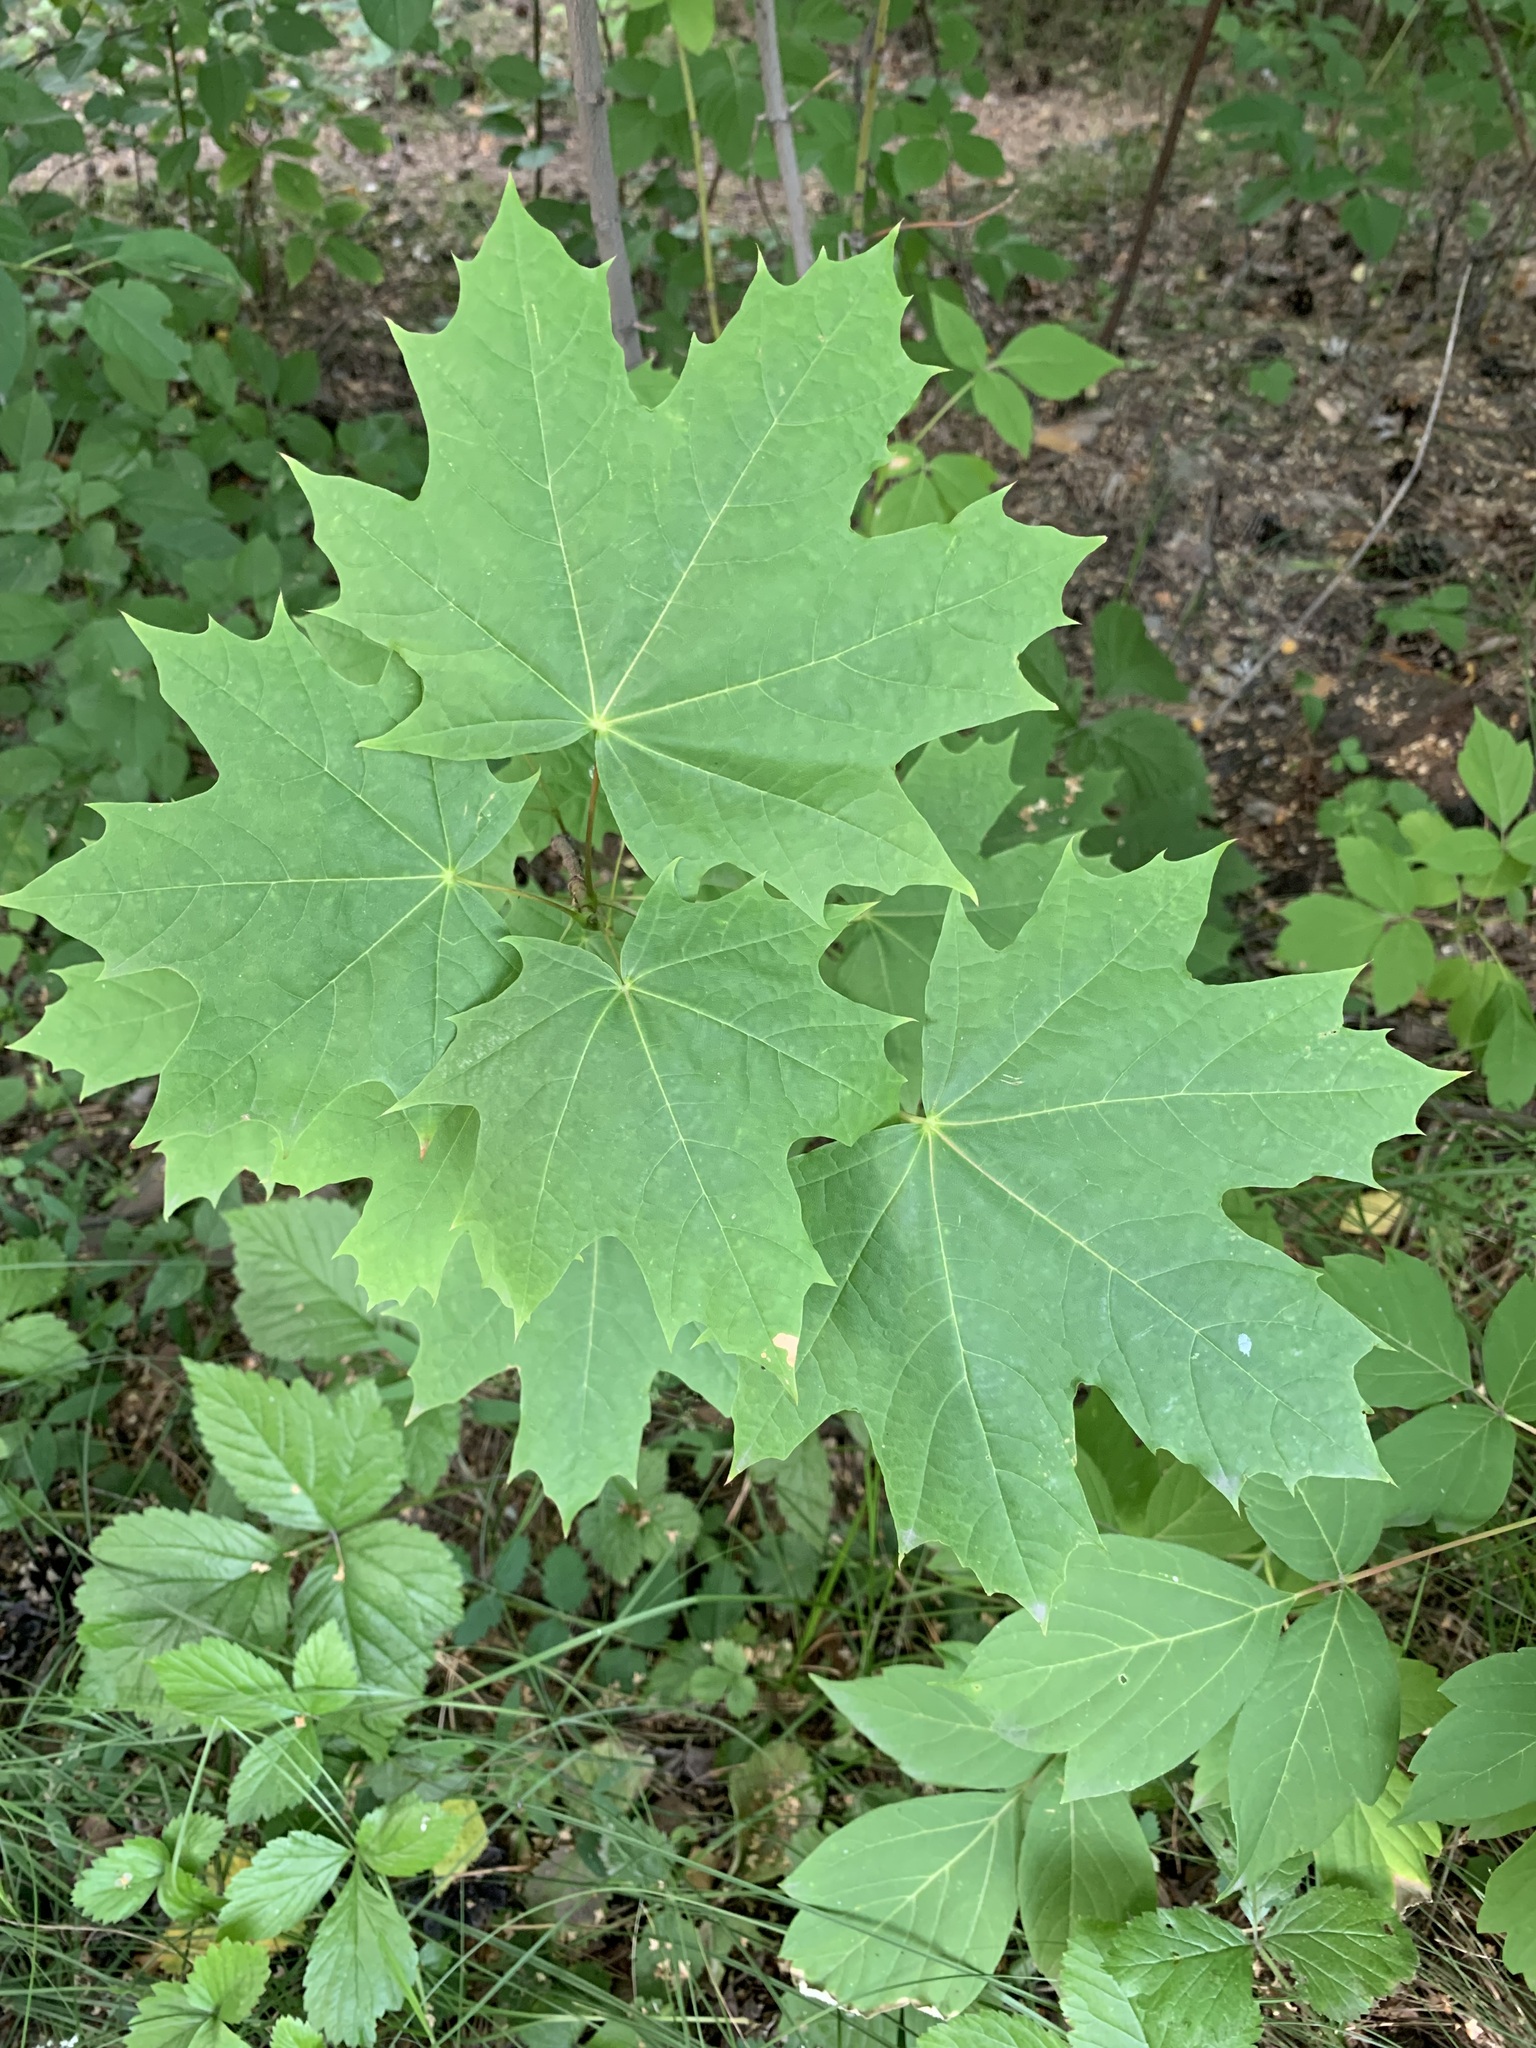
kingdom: Plantae
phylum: Tracheophyta
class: Magnoliopsida
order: Sapindales
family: Sapindaceae
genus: Acer
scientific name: Acer platanoides
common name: Norway maple
